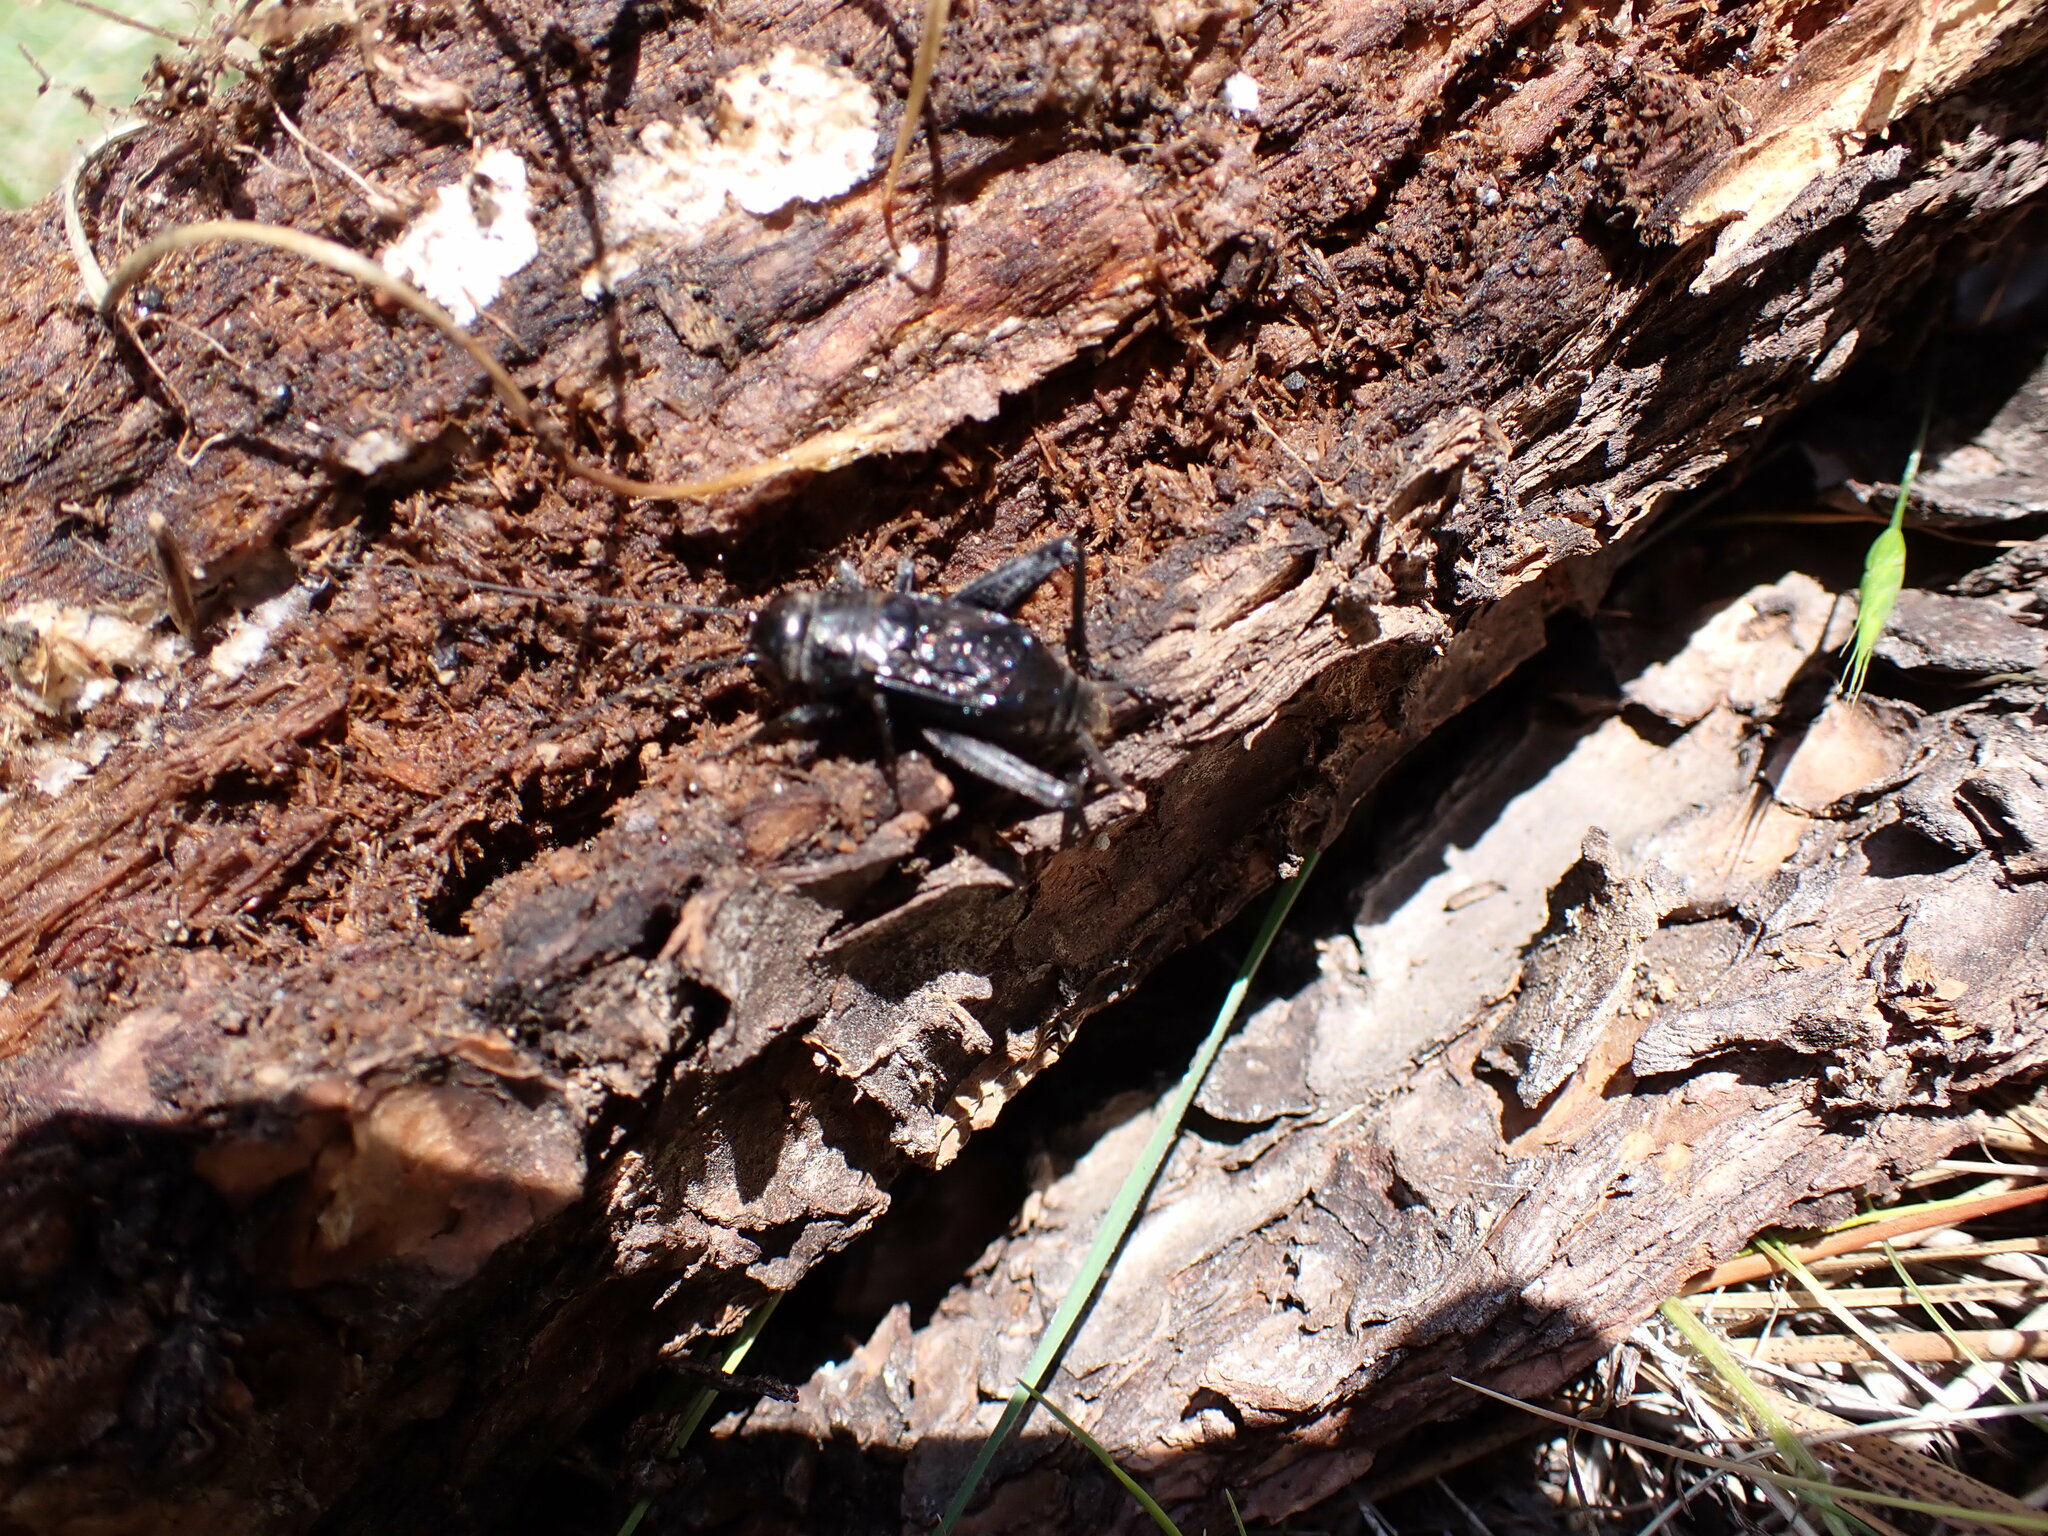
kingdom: Animalia
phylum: Arthropoda
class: Insecta
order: Orthoptera
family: Gryllidae
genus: Gryllus
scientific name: Gryllus veletis
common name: Spring field cricket
